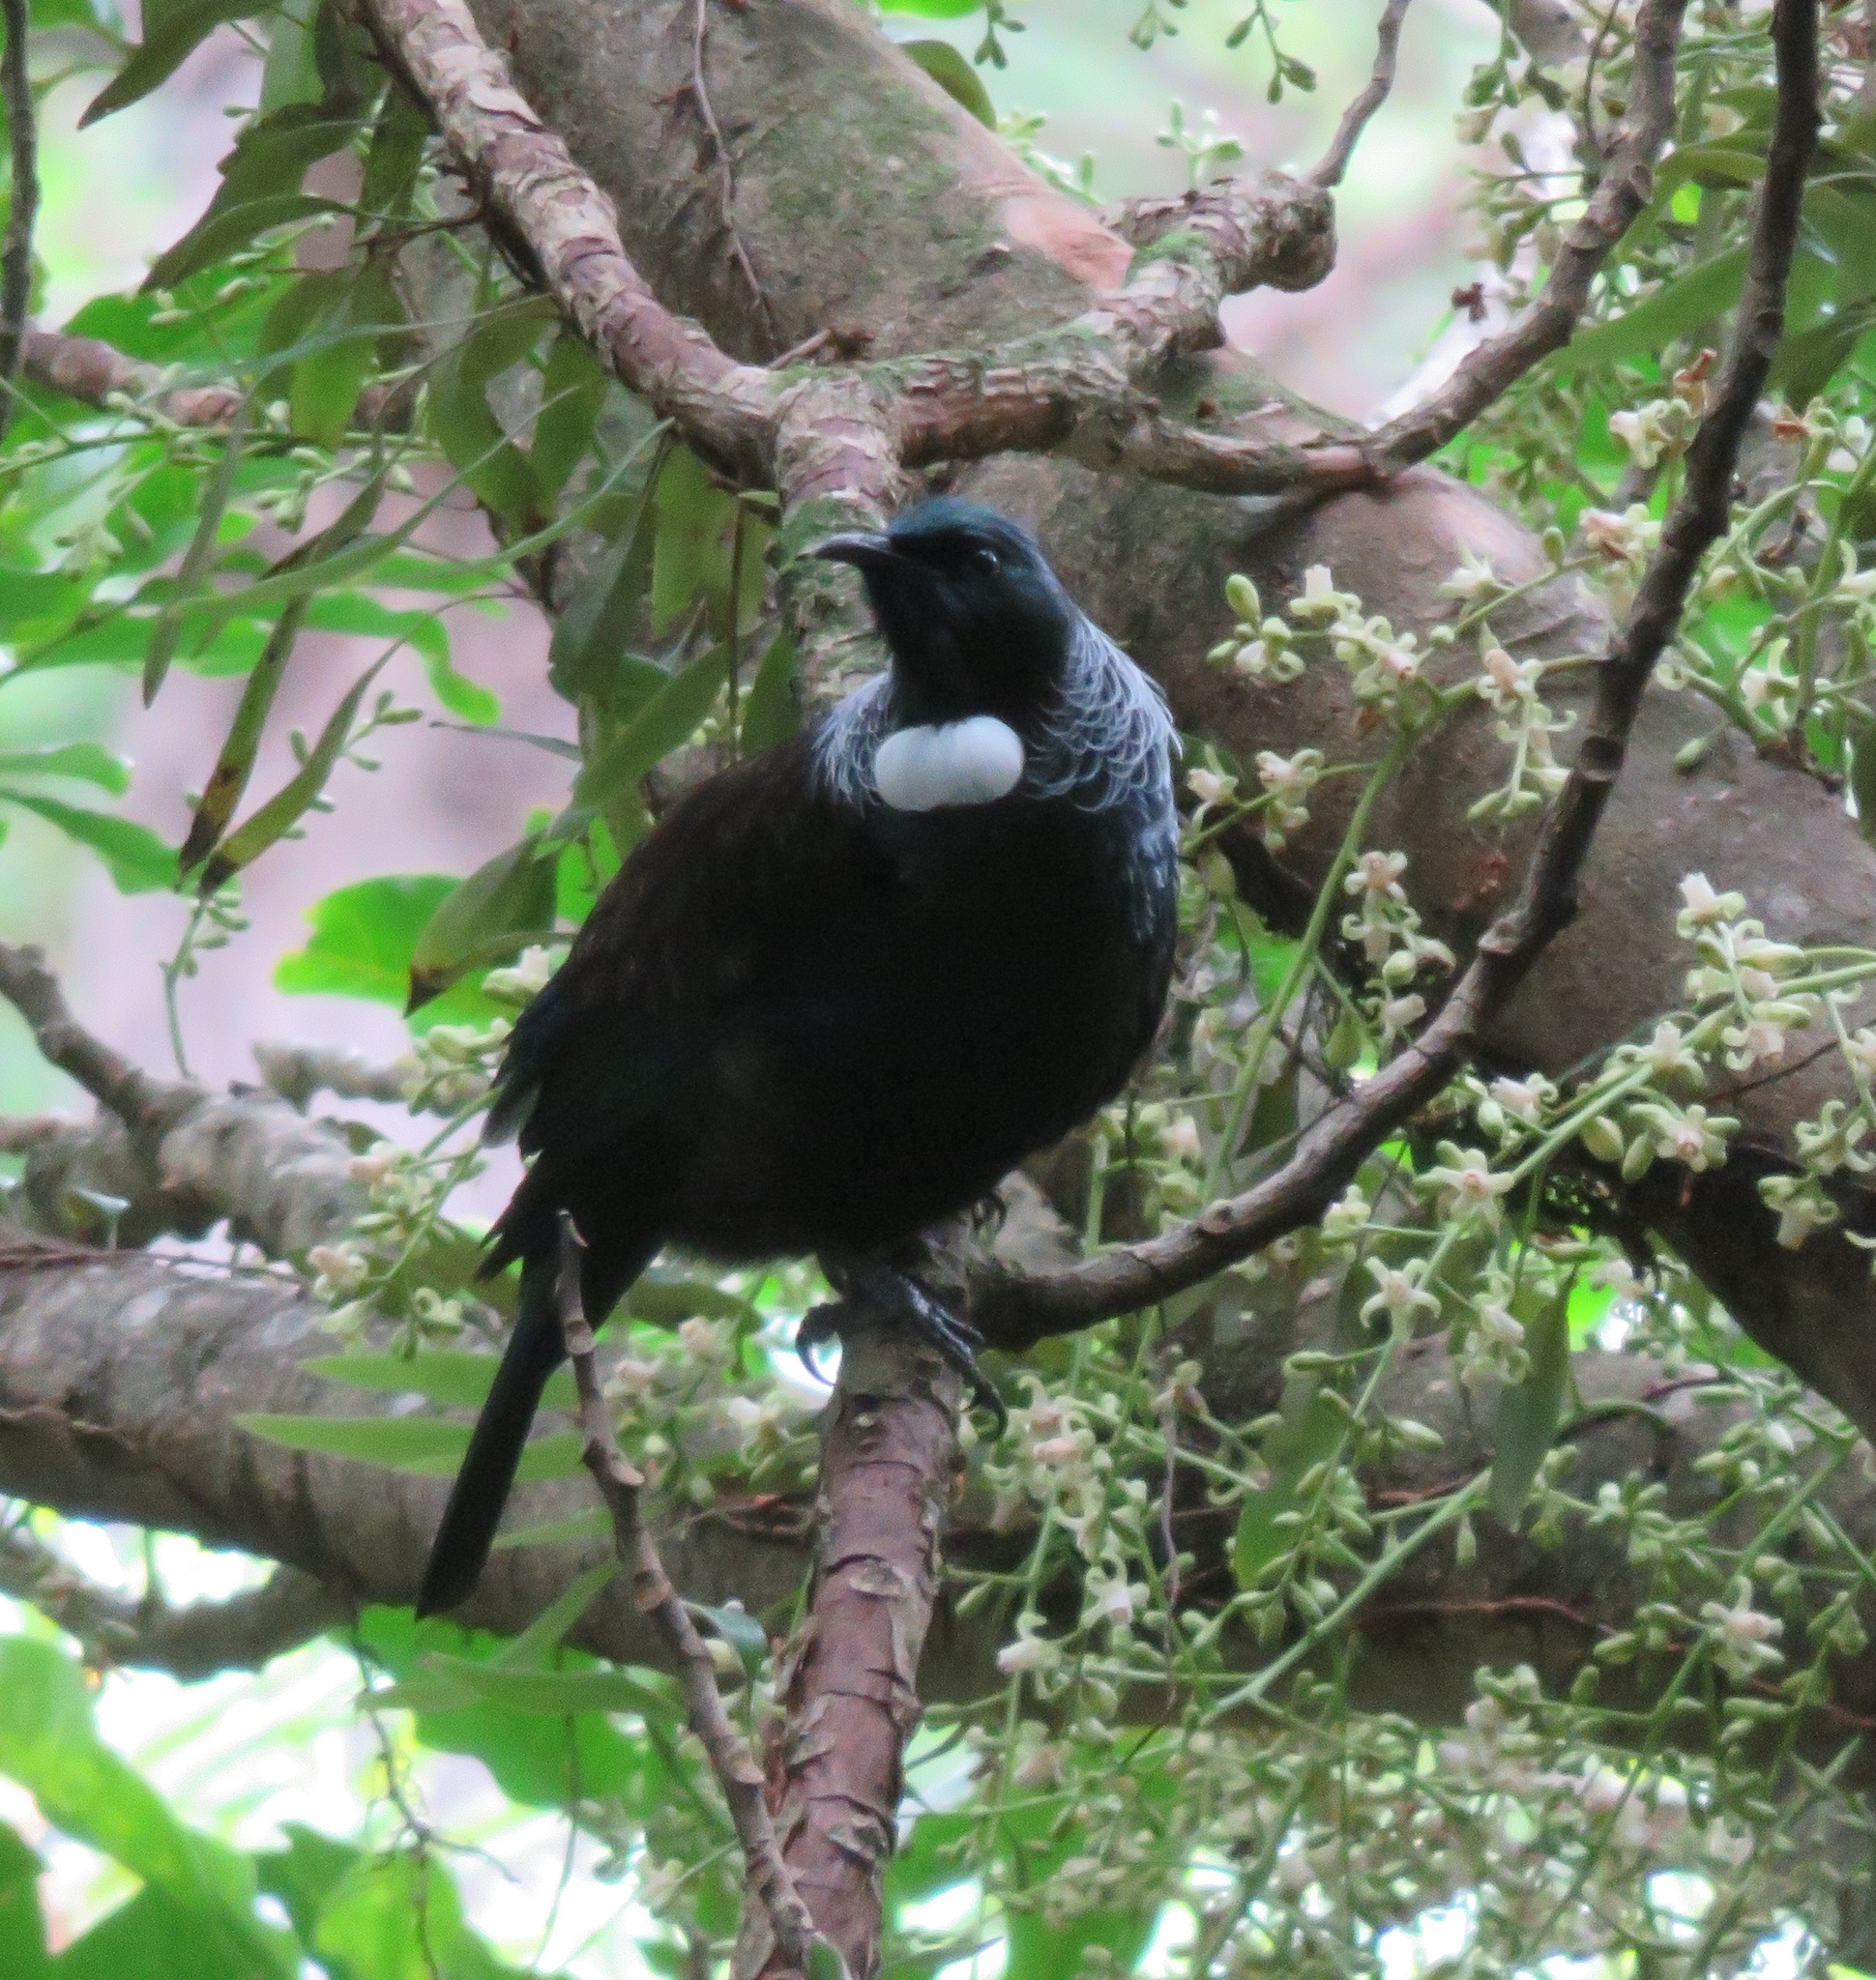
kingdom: Animalia
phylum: Chordata
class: Aves
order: Passeriformes
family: Meliphagidae
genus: Prosthemadera
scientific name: Prosthemadera novaeseelandiae
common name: Tui
